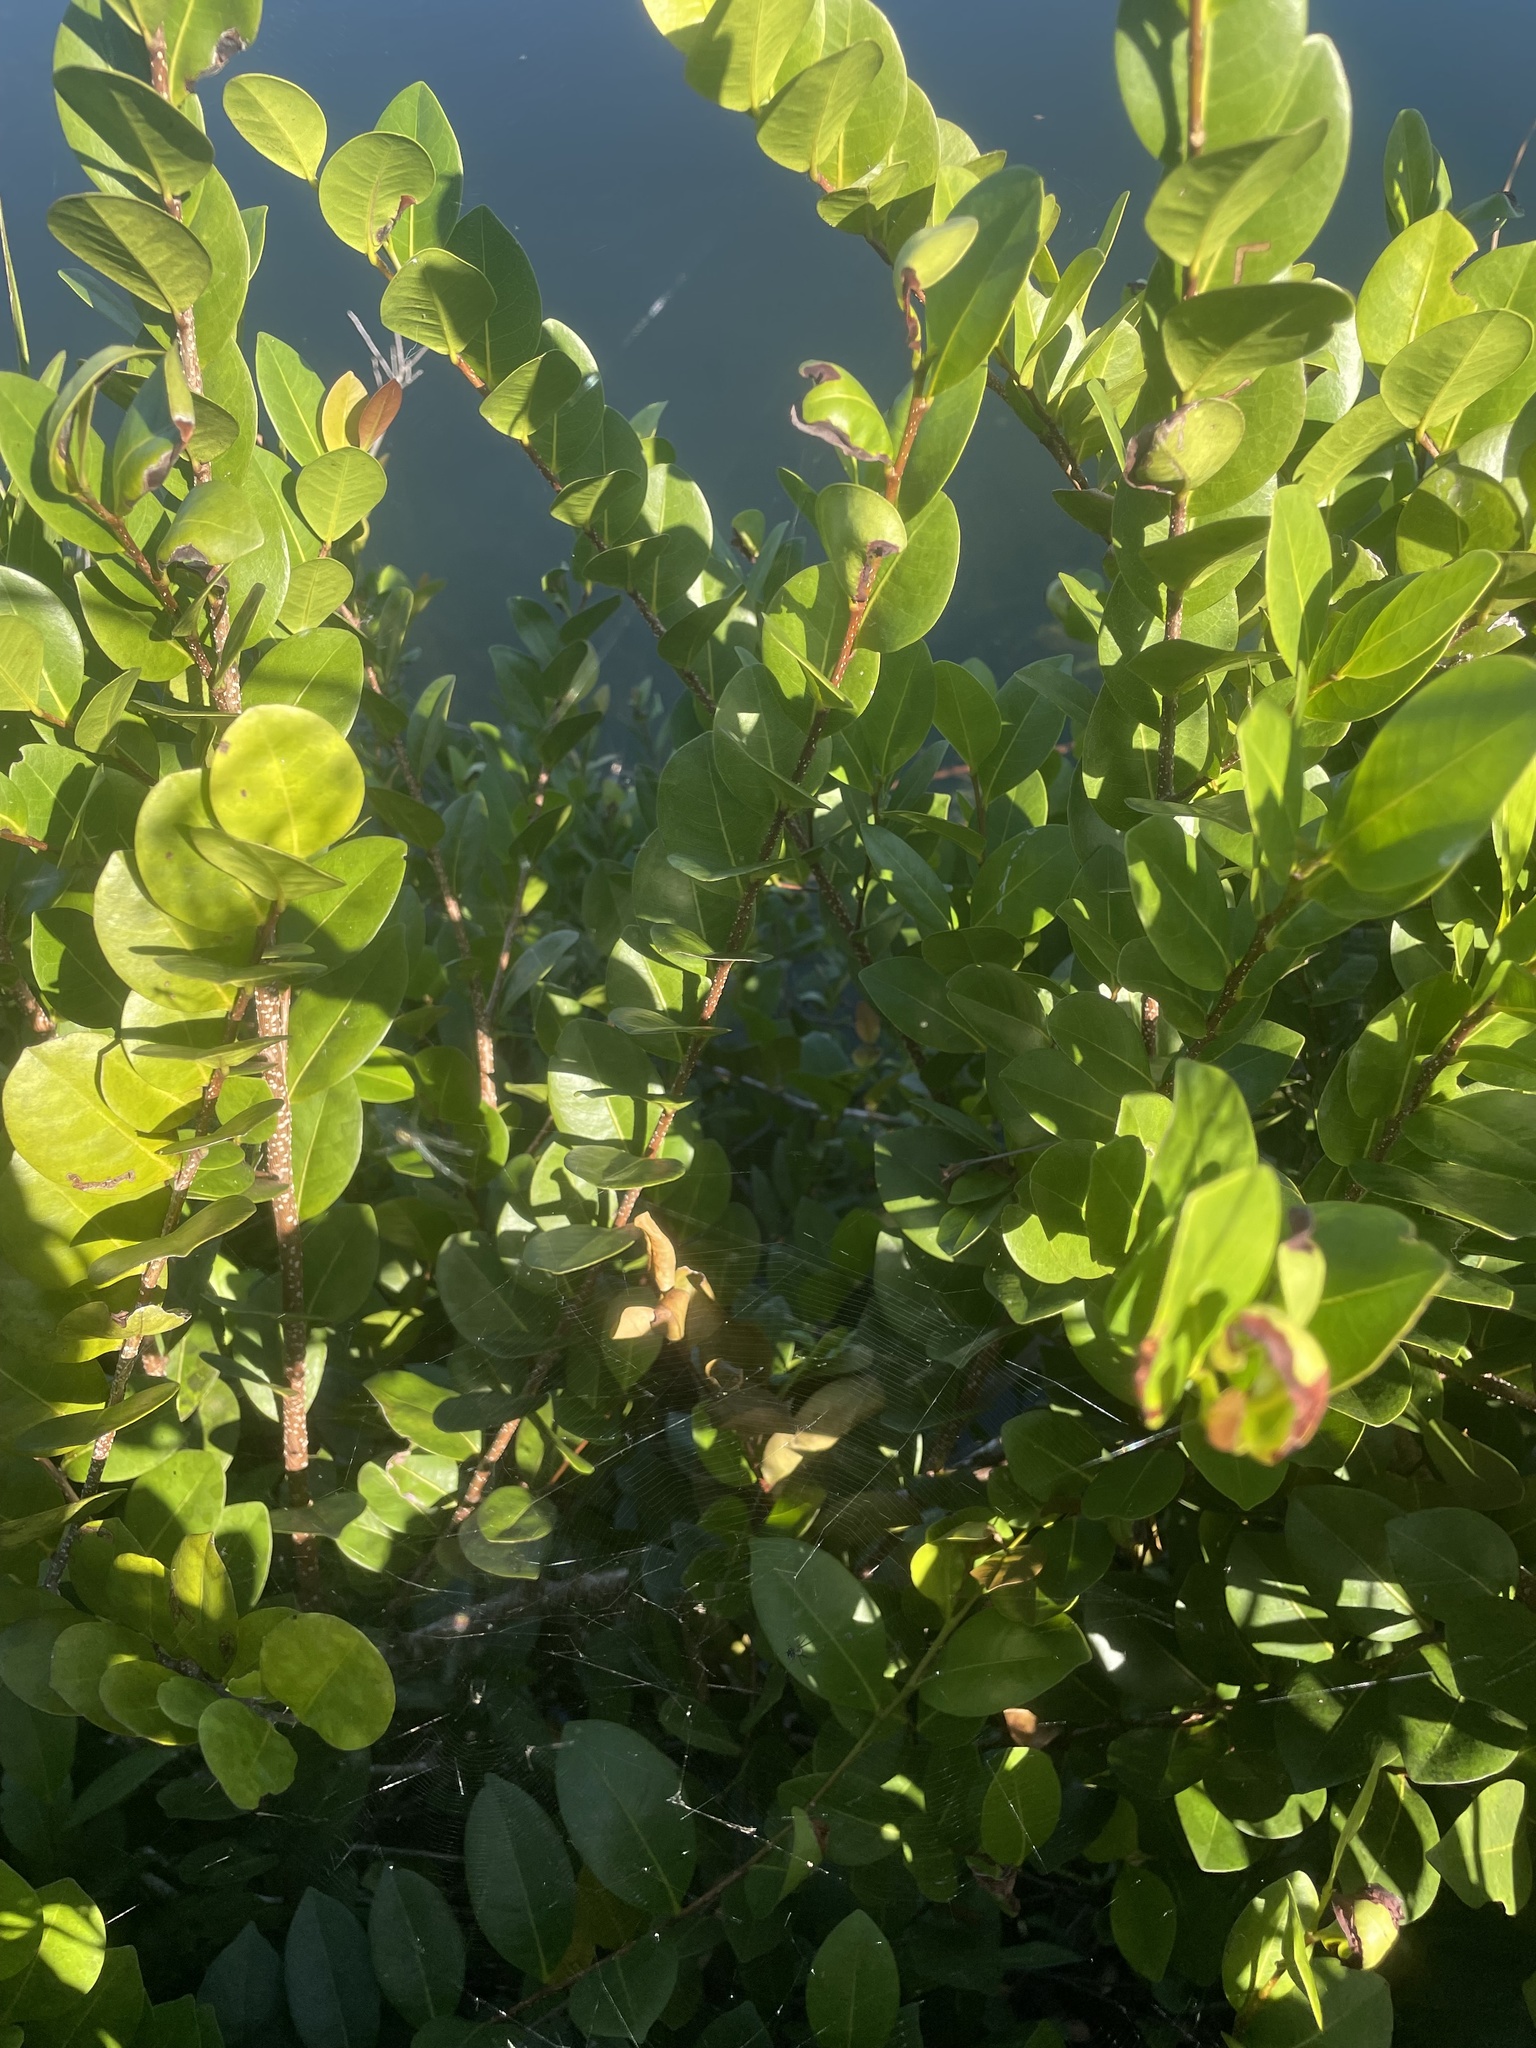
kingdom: Plantae
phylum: Tracheophyta
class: Magnoliopsida
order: Malpighiales
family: Chrysobalanaceae
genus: Chrysobalanus
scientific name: Chrysobalanus icaco
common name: Coco plum
